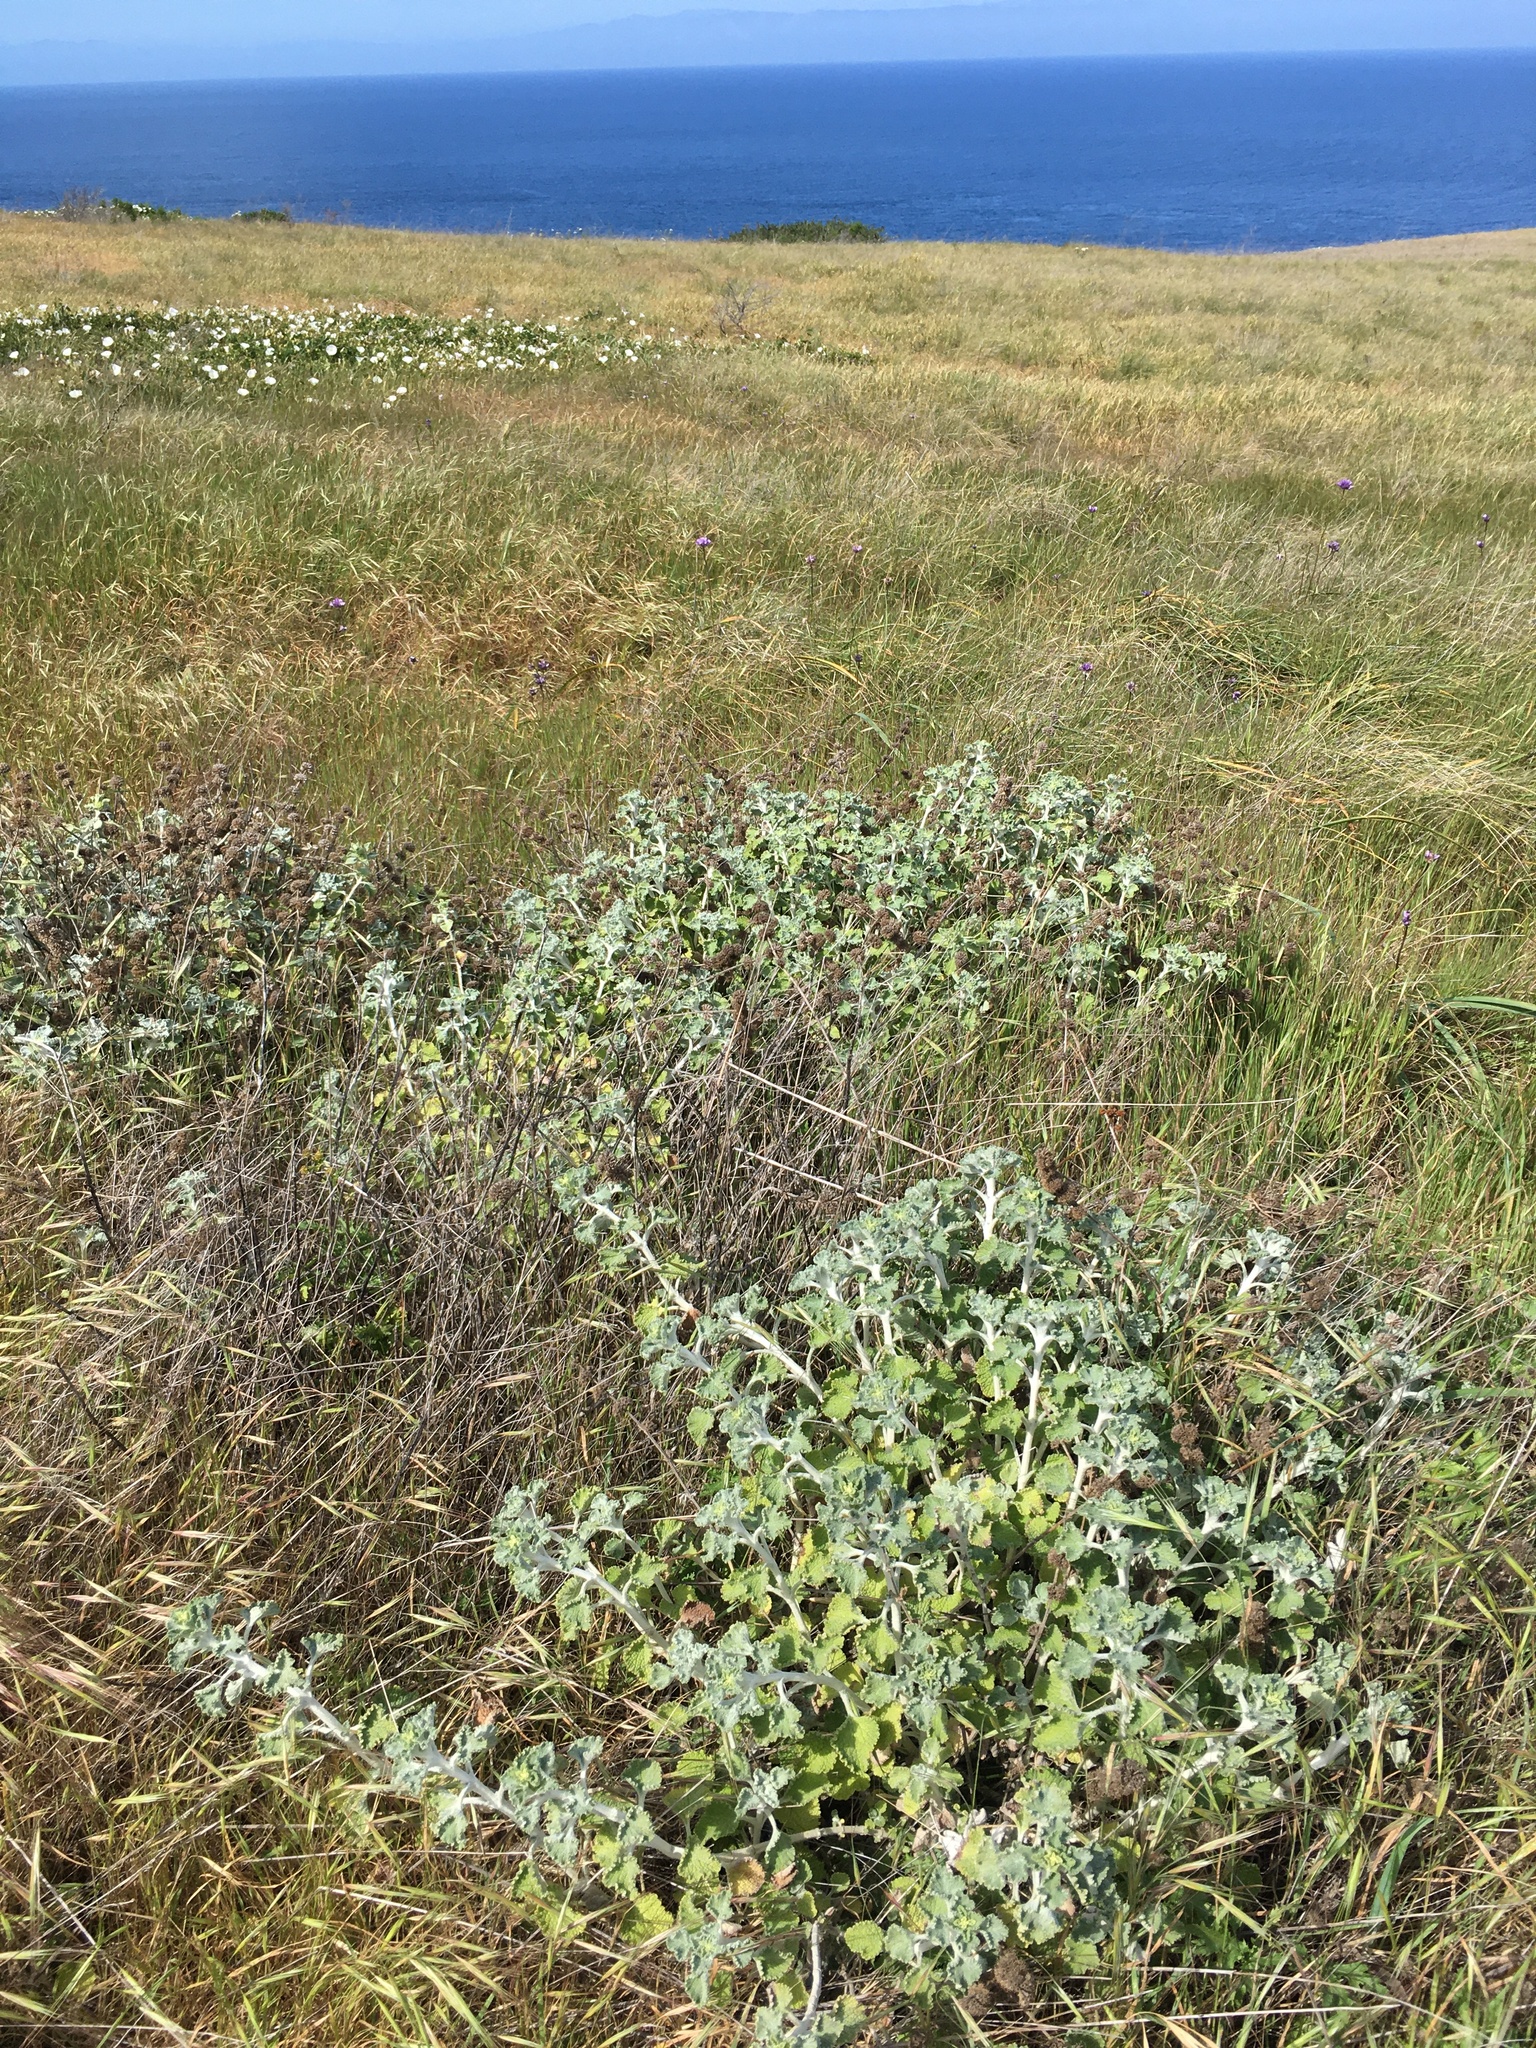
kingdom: Plantae
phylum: Tracheophyta
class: Magnoliopsida
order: Lamiales
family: Lamiaceae
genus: Marrubium
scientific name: Marrubium vulgare
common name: Horehound
